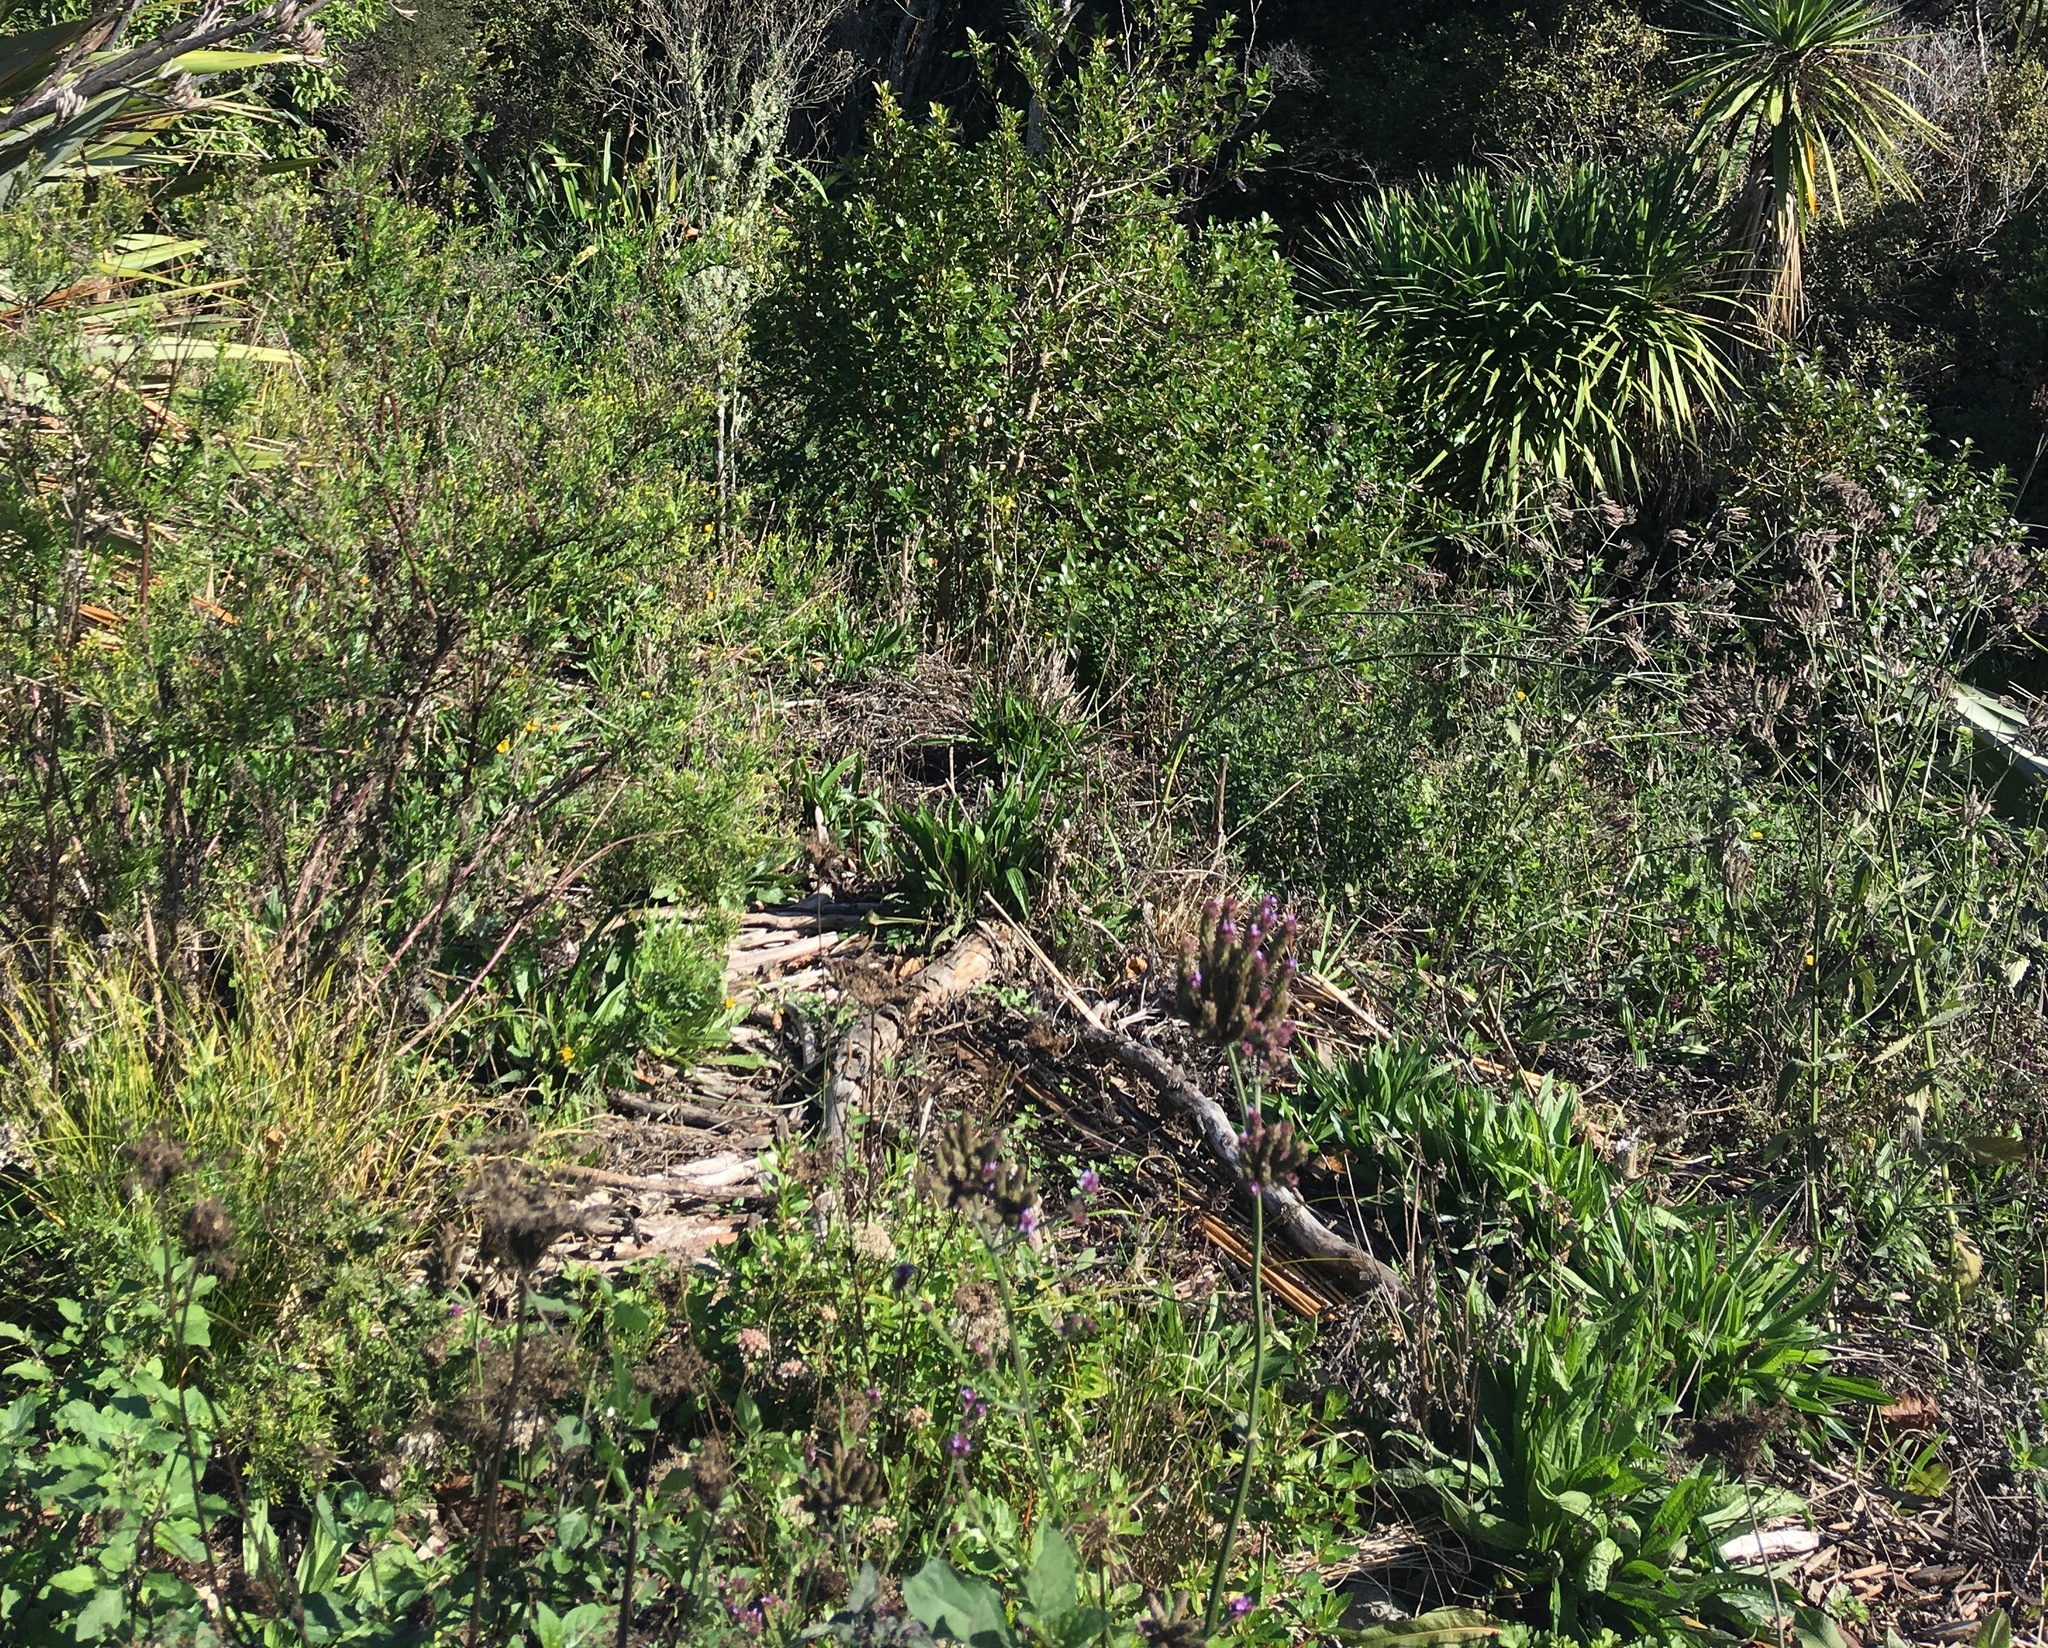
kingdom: Plantae
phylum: Tracheophyta
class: Magnoliopsida
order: Lamiales
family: Verbenaceae
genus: Verbena
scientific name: Verbena incompta
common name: Purpletop vervain
